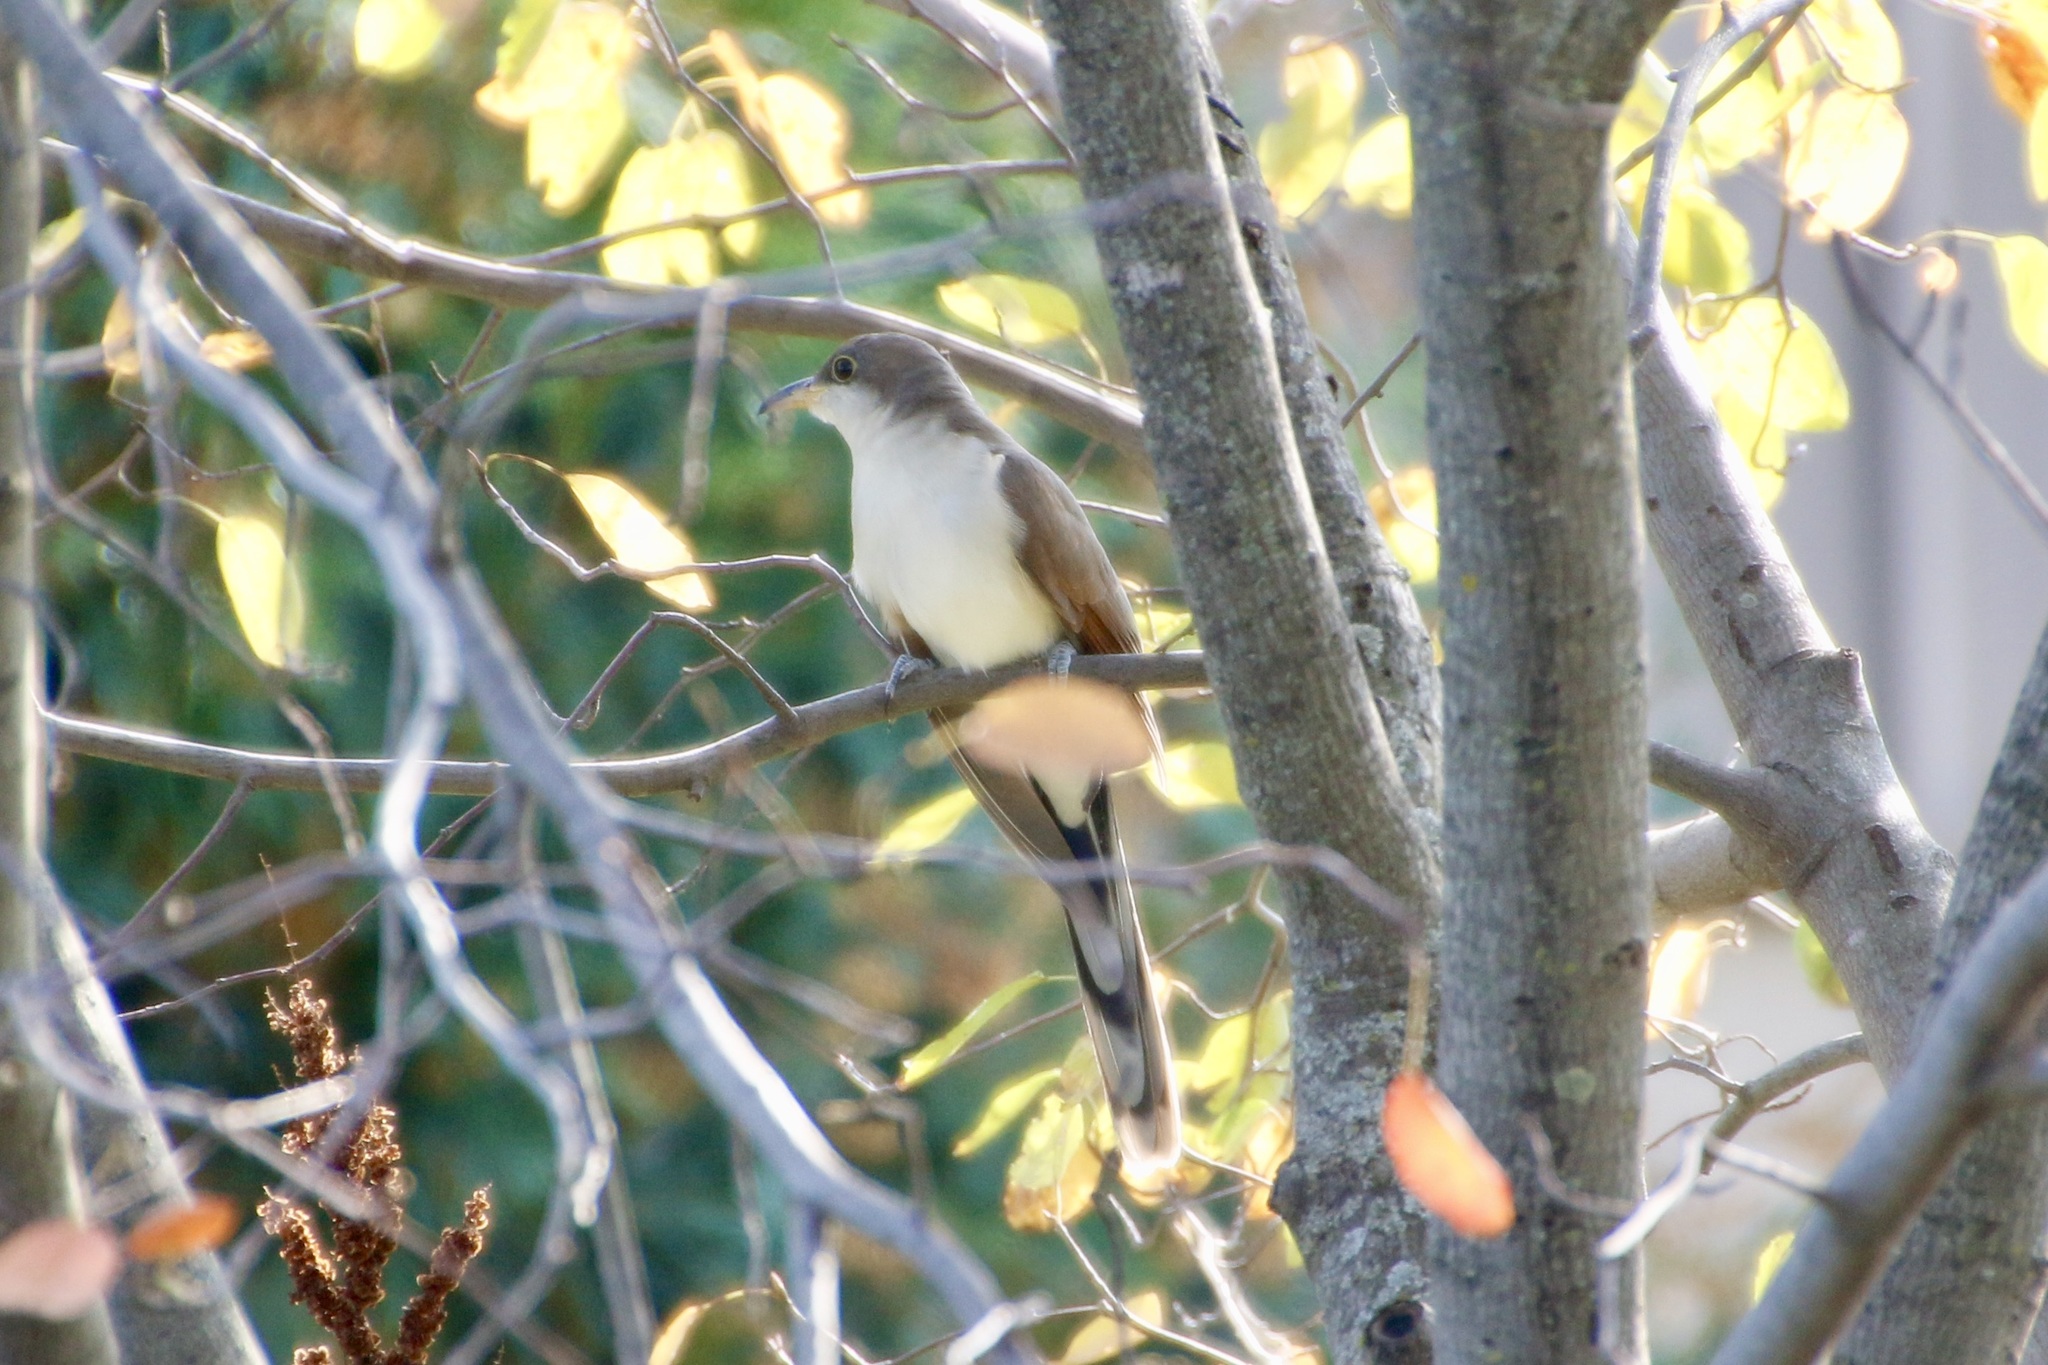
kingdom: Animalia
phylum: Chordata
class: Aves
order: Cuculiformes
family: Cuculidae
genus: Coccyzus
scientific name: Coccyzus americanus
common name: Yellow-billed cuckoo
